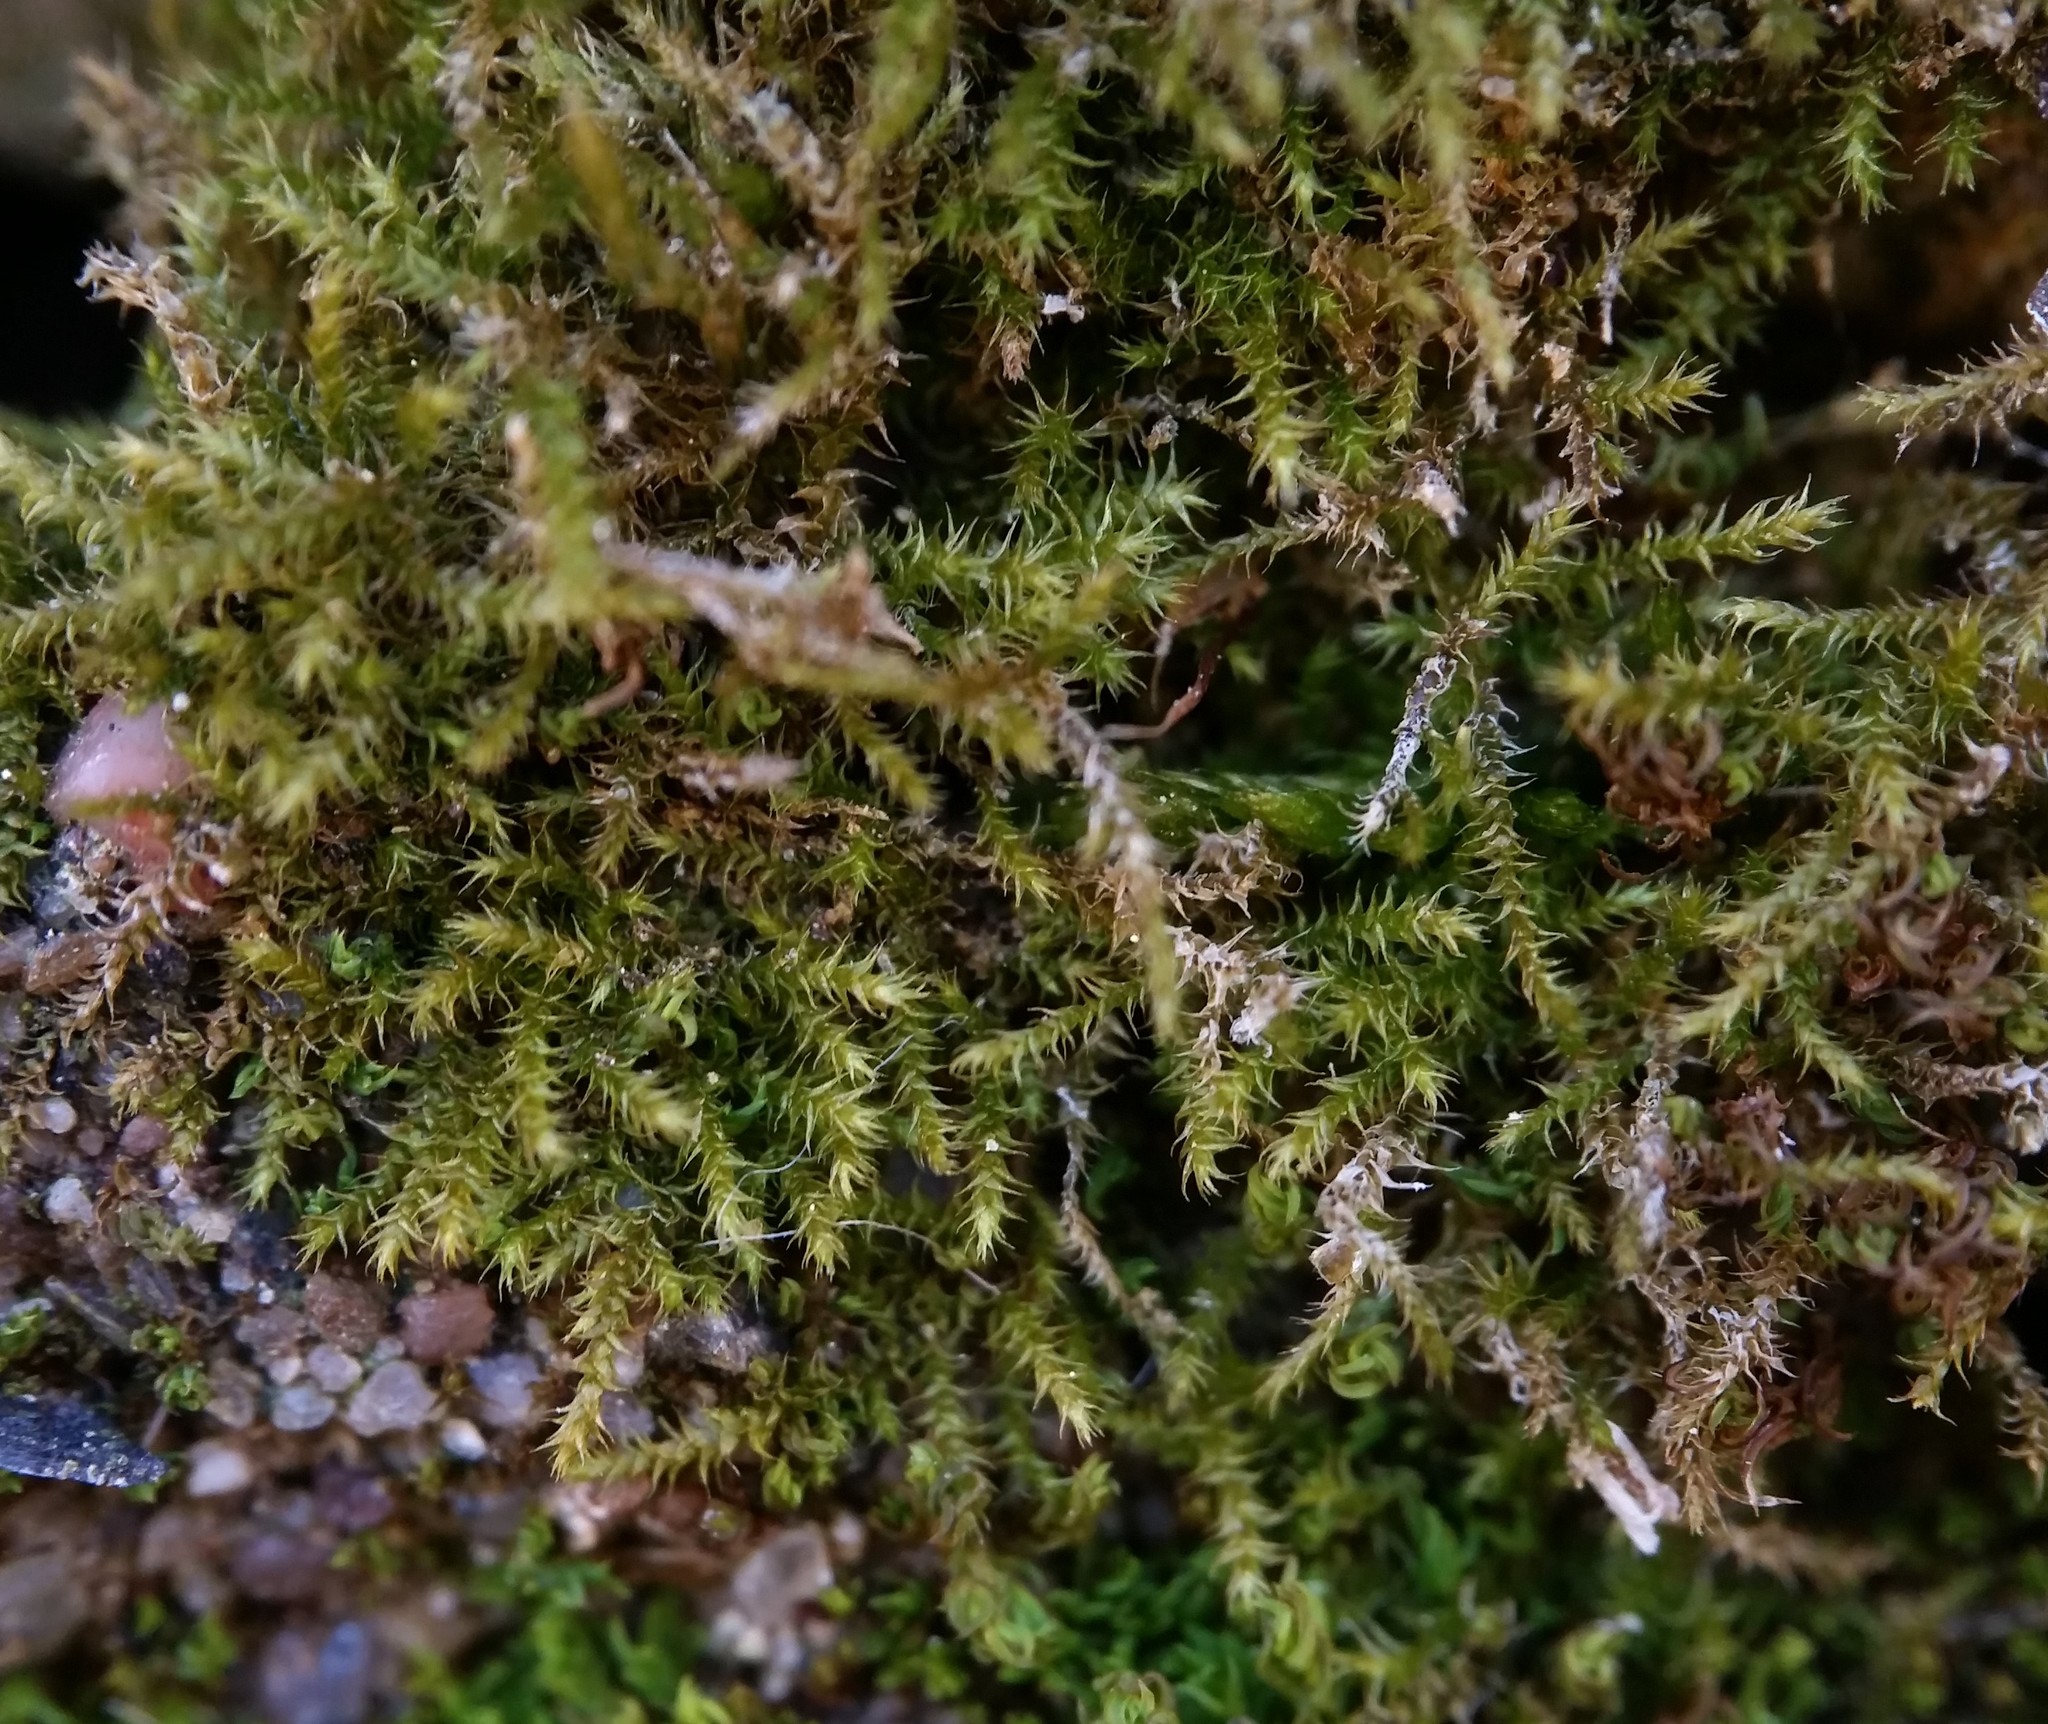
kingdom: Plantae
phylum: Bryophyta
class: Bryopsida
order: Hypnales
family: Amblystegiaceae
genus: Campylophyllopsis
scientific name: Campylophyllopsis hispidula
